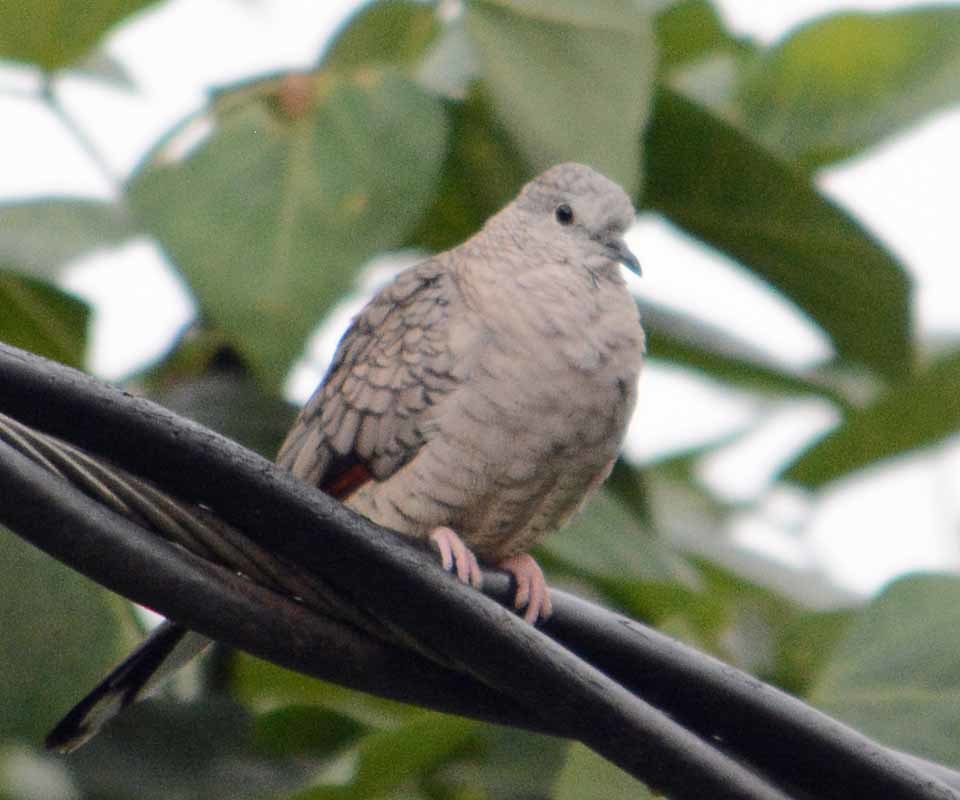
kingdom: Animalia
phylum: Chordata
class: Aves
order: Columbiformes
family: Columbidae
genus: Columbina
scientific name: Columbina inca
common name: Inca dove
